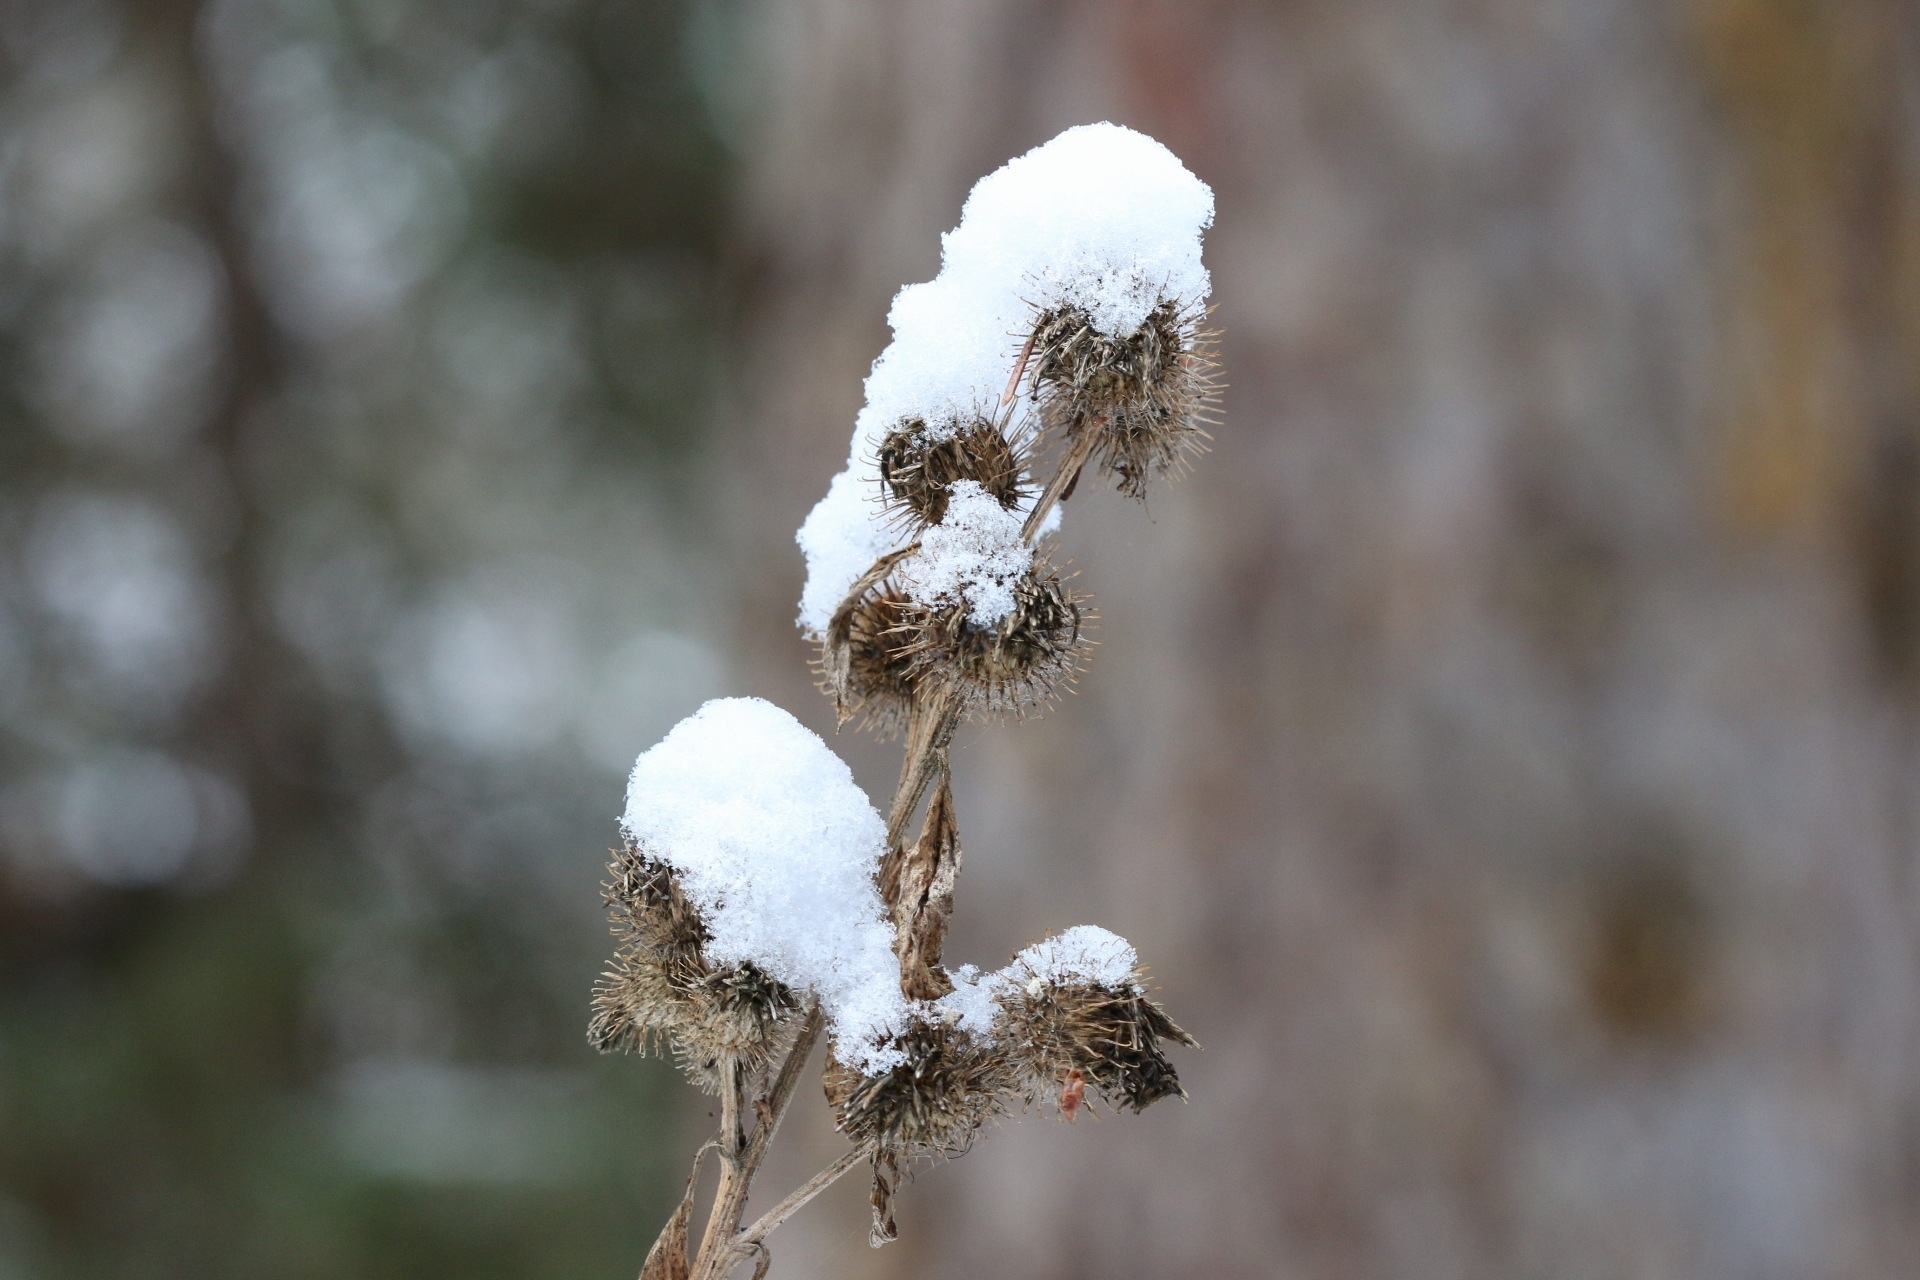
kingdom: Plantae
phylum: Tracheophyta
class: Magnoliopsida
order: Asterales
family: Asteraceae
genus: Arctium
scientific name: Arctium minus
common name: Lesser burdock
